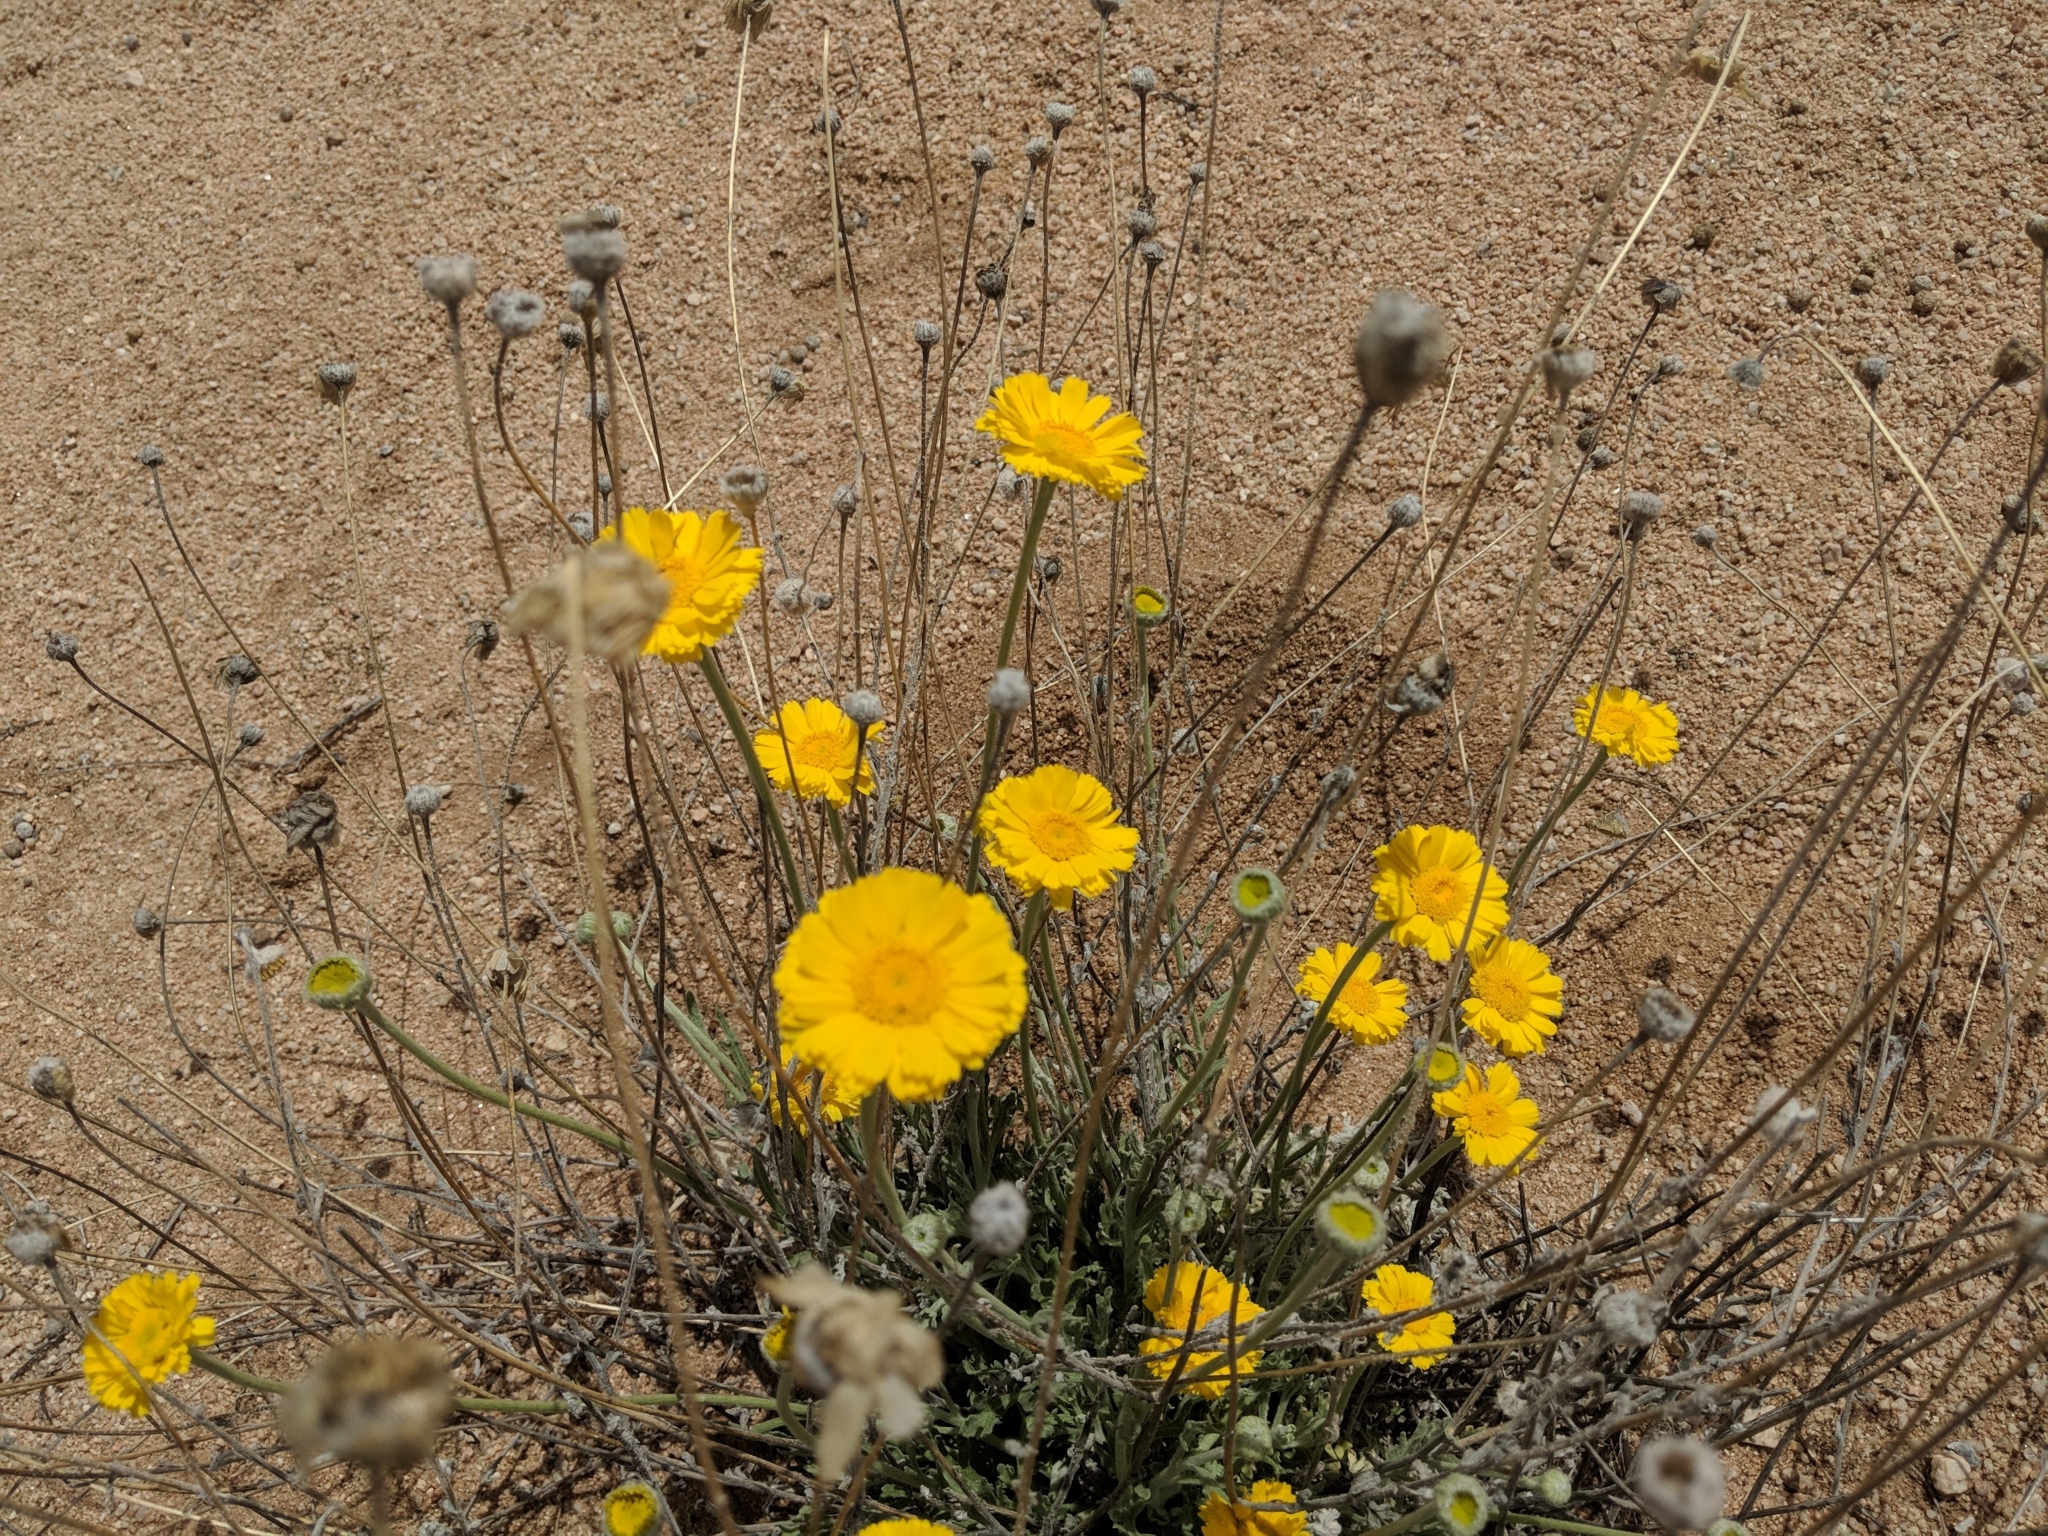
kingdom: Plantae
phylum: Tracheophyta
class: Magnoliopsida
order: Asterales
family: Asteraceae
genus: Baileya
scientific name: Baileya multiradiata
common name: Desert-marigold
